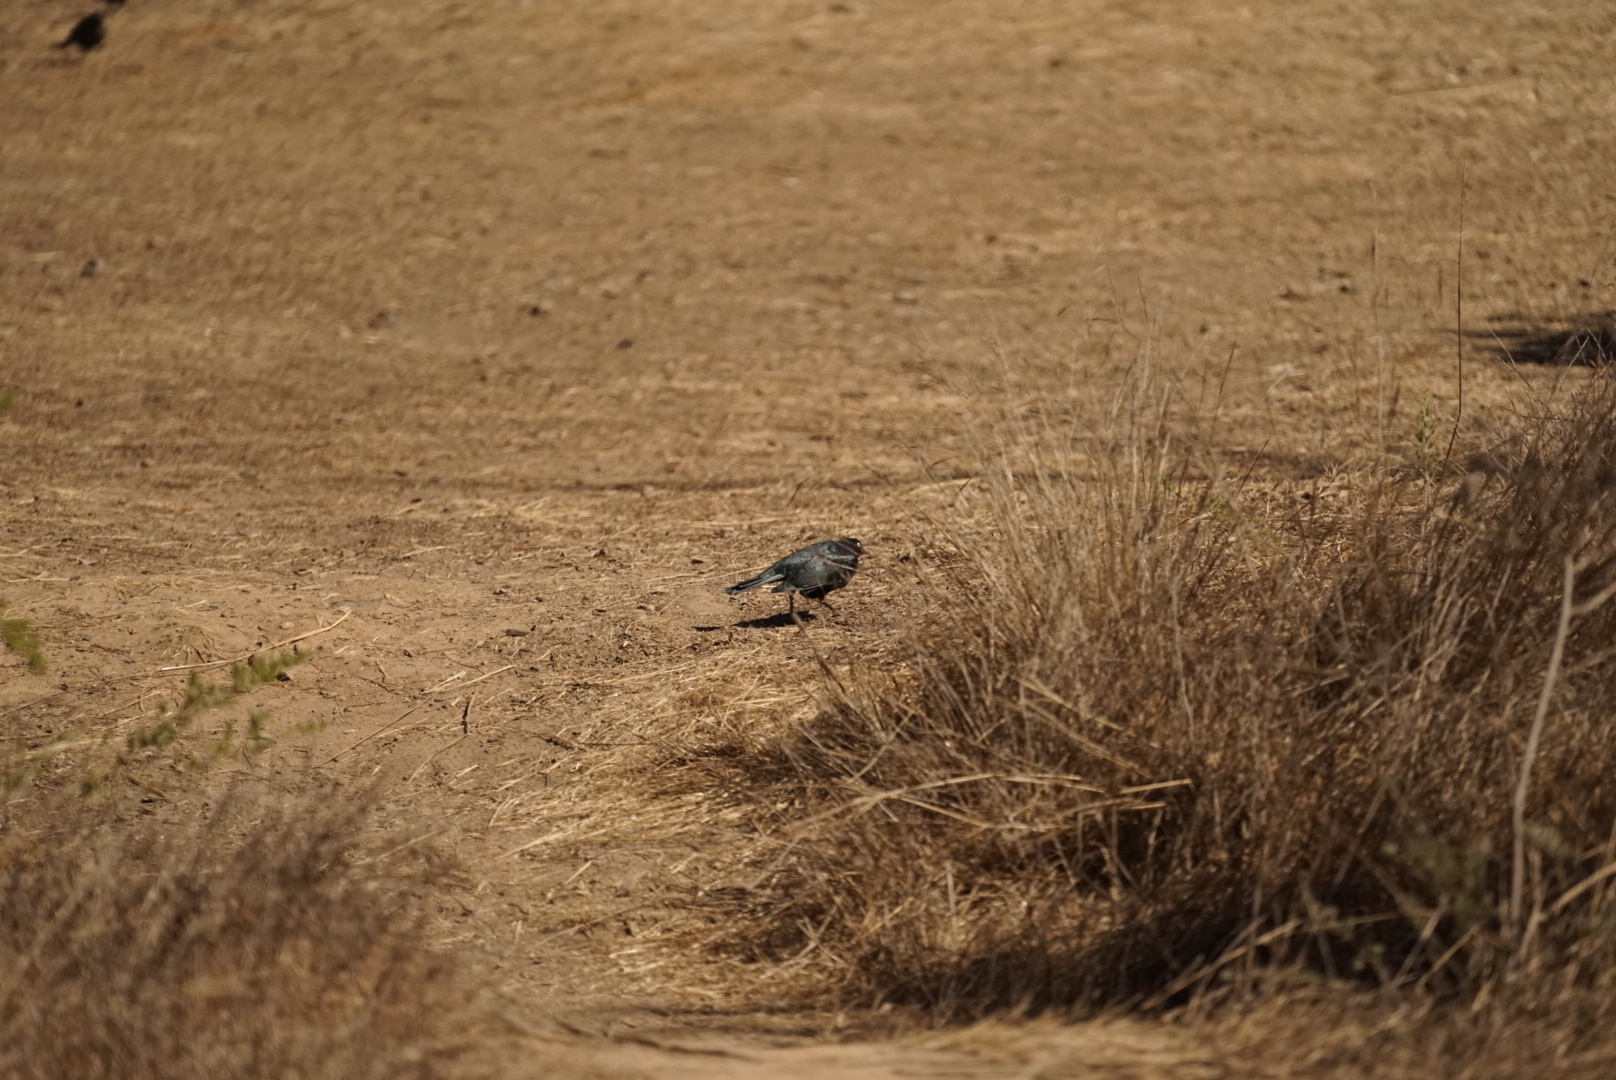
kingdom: Animalia
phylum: Chordata
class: Aves
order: Passeriformes
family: Icteridae
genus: Euphagus
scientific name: Euphagus cyanocephalus
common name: Brewer's blackbird
